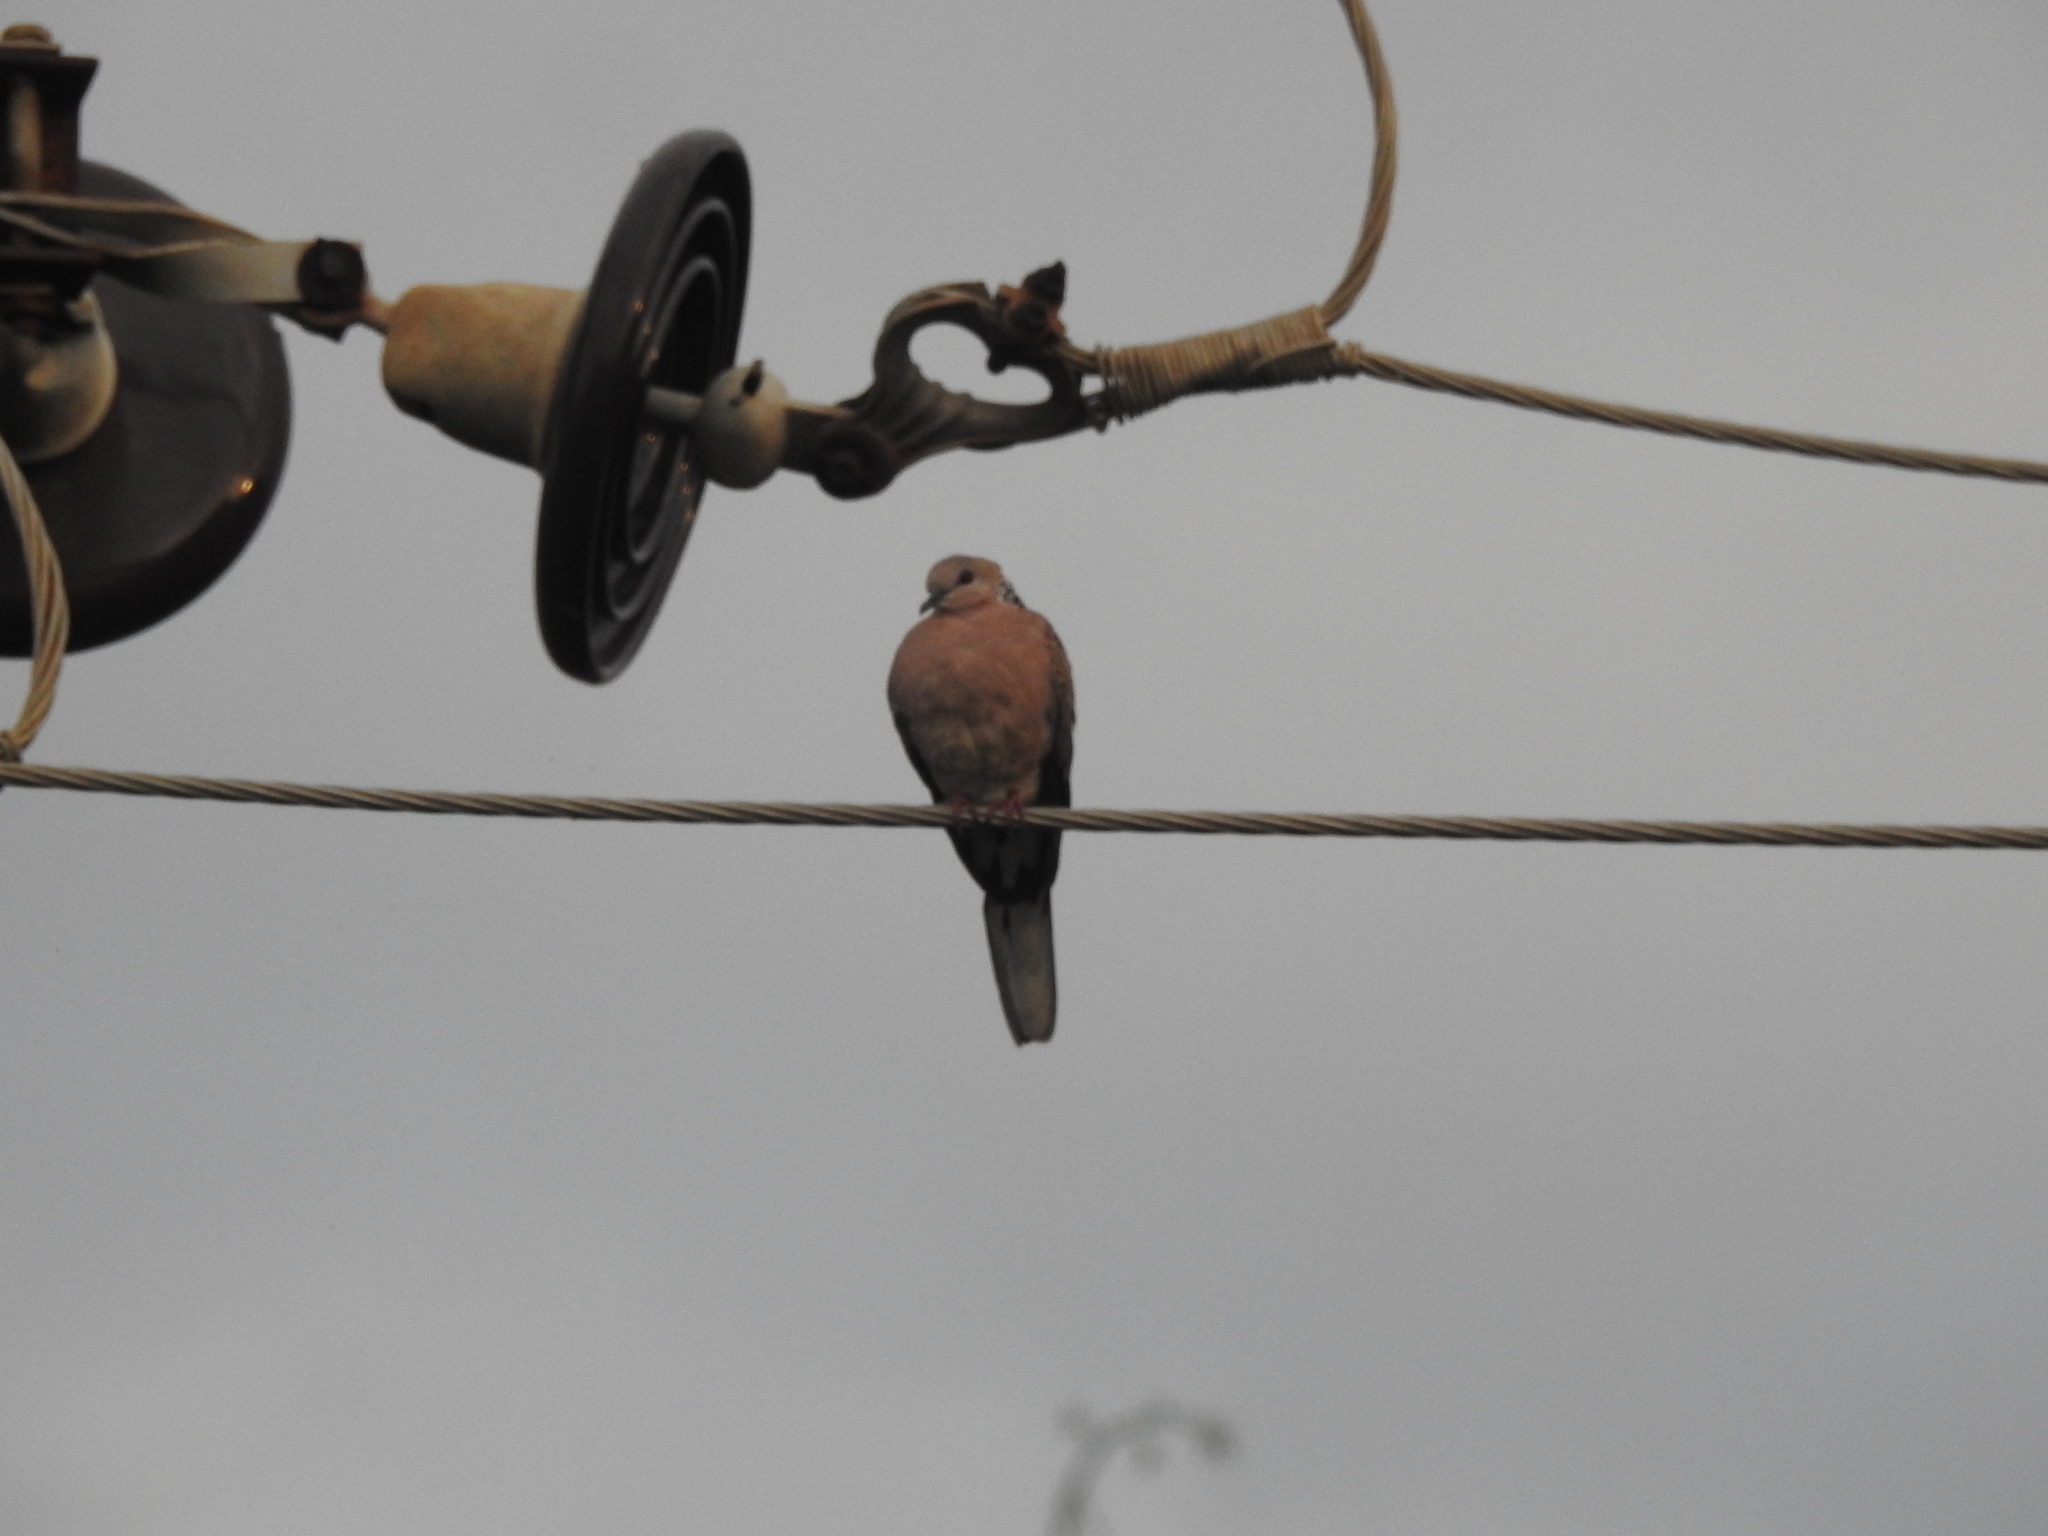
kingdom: Animalia
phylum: Chordata
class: Aves
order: Columbiformes
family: Columbidae
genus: Spilopelia
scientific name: Spilopelia chinensis
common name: Spotted dove
